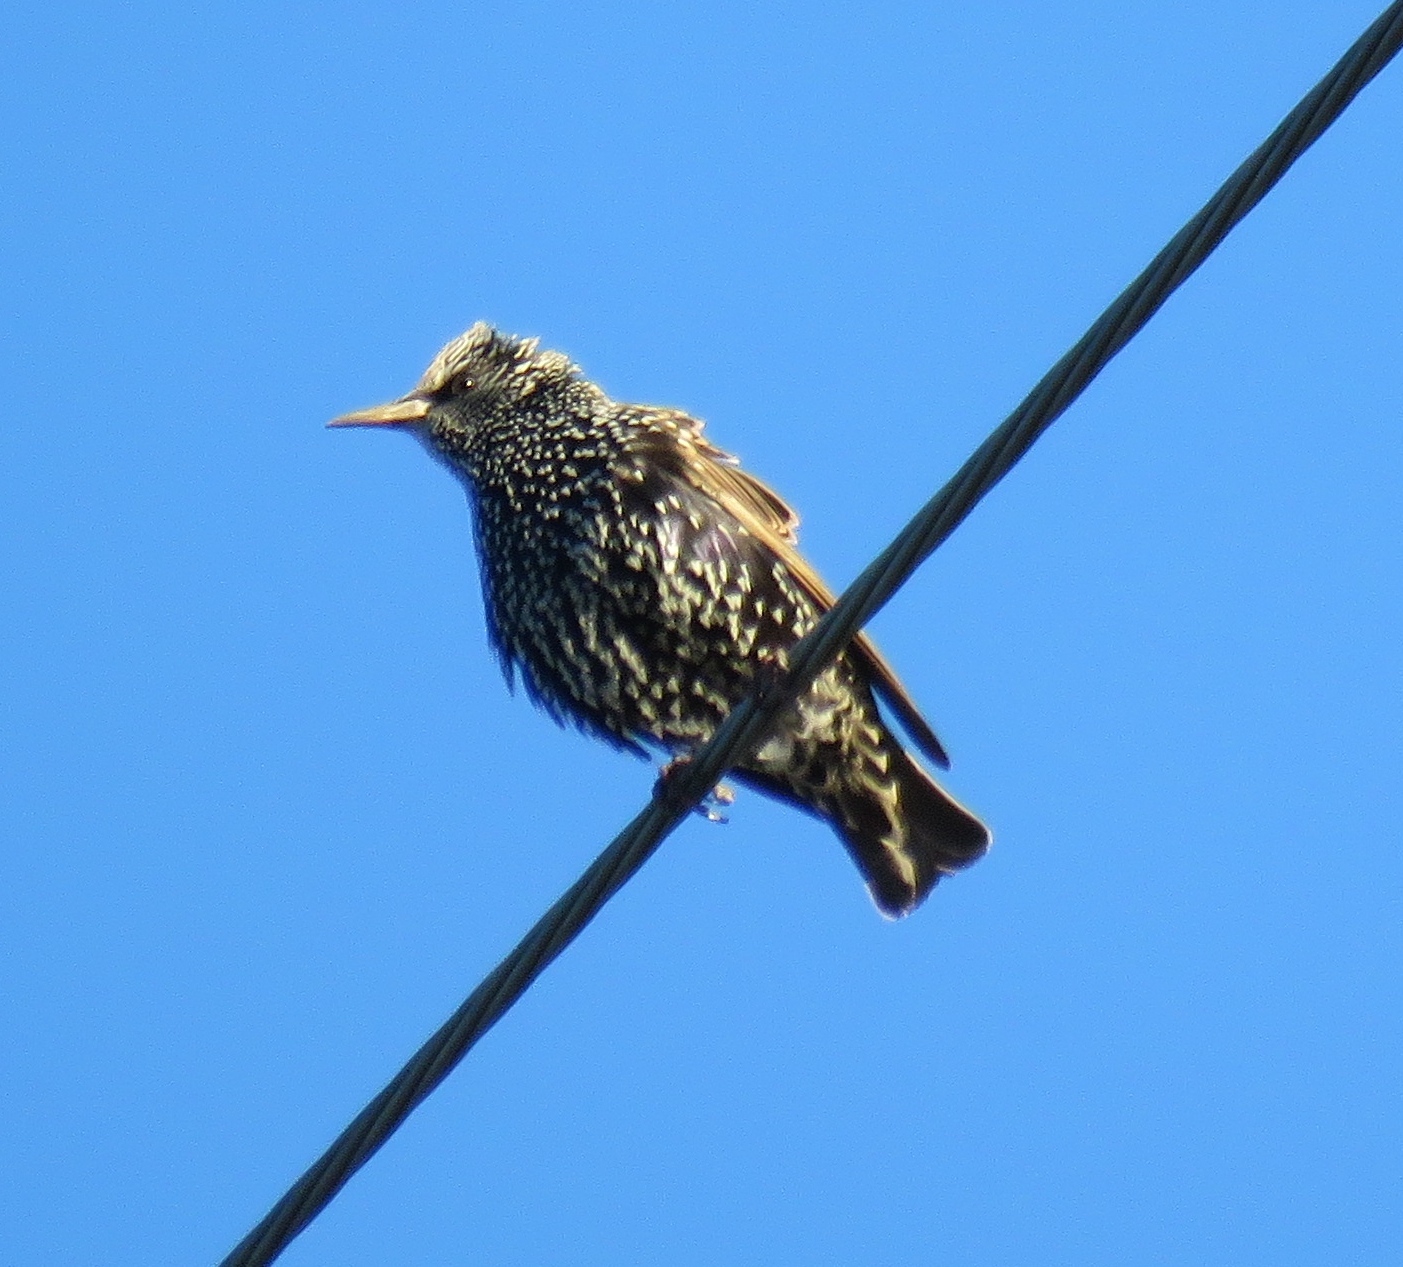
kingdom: Animalia
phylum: Chordata
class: Aves
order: Passeriformes
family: Sturnidae
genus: Sturnus
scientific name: Sturnus vulgaris
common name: Common starling
